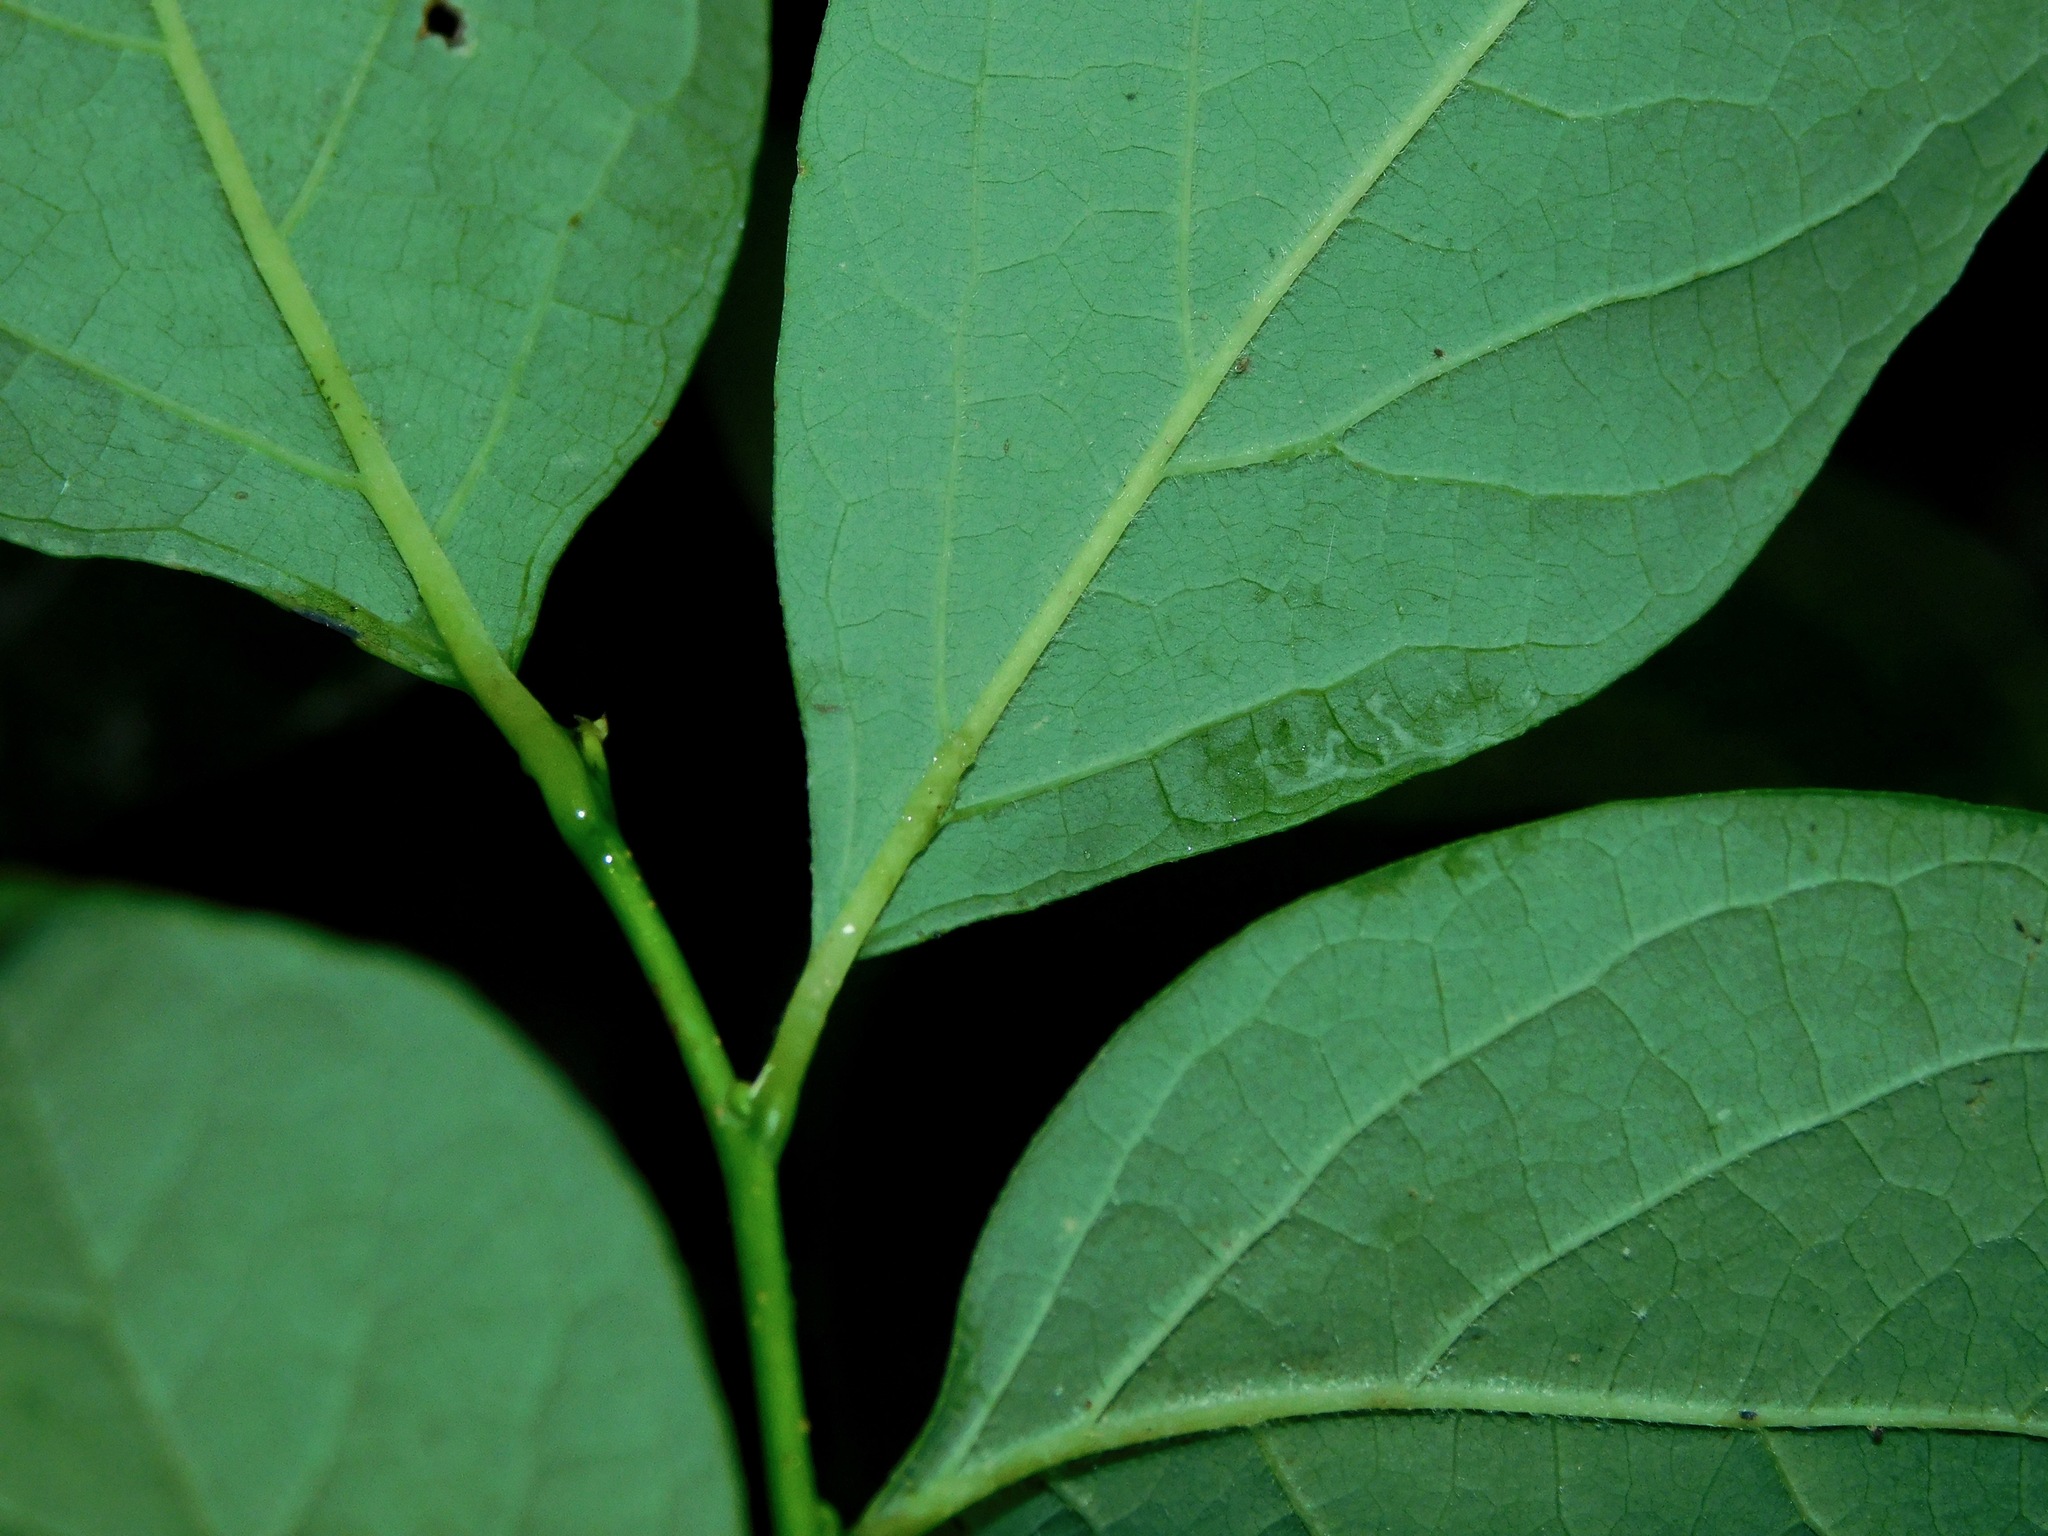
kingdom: Plantae
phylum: Tracheophyta
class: Magnoliopsida
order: Laurales
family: Lauraceae
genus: Lindera
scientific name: Lindera benzoin
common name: Spicebush
